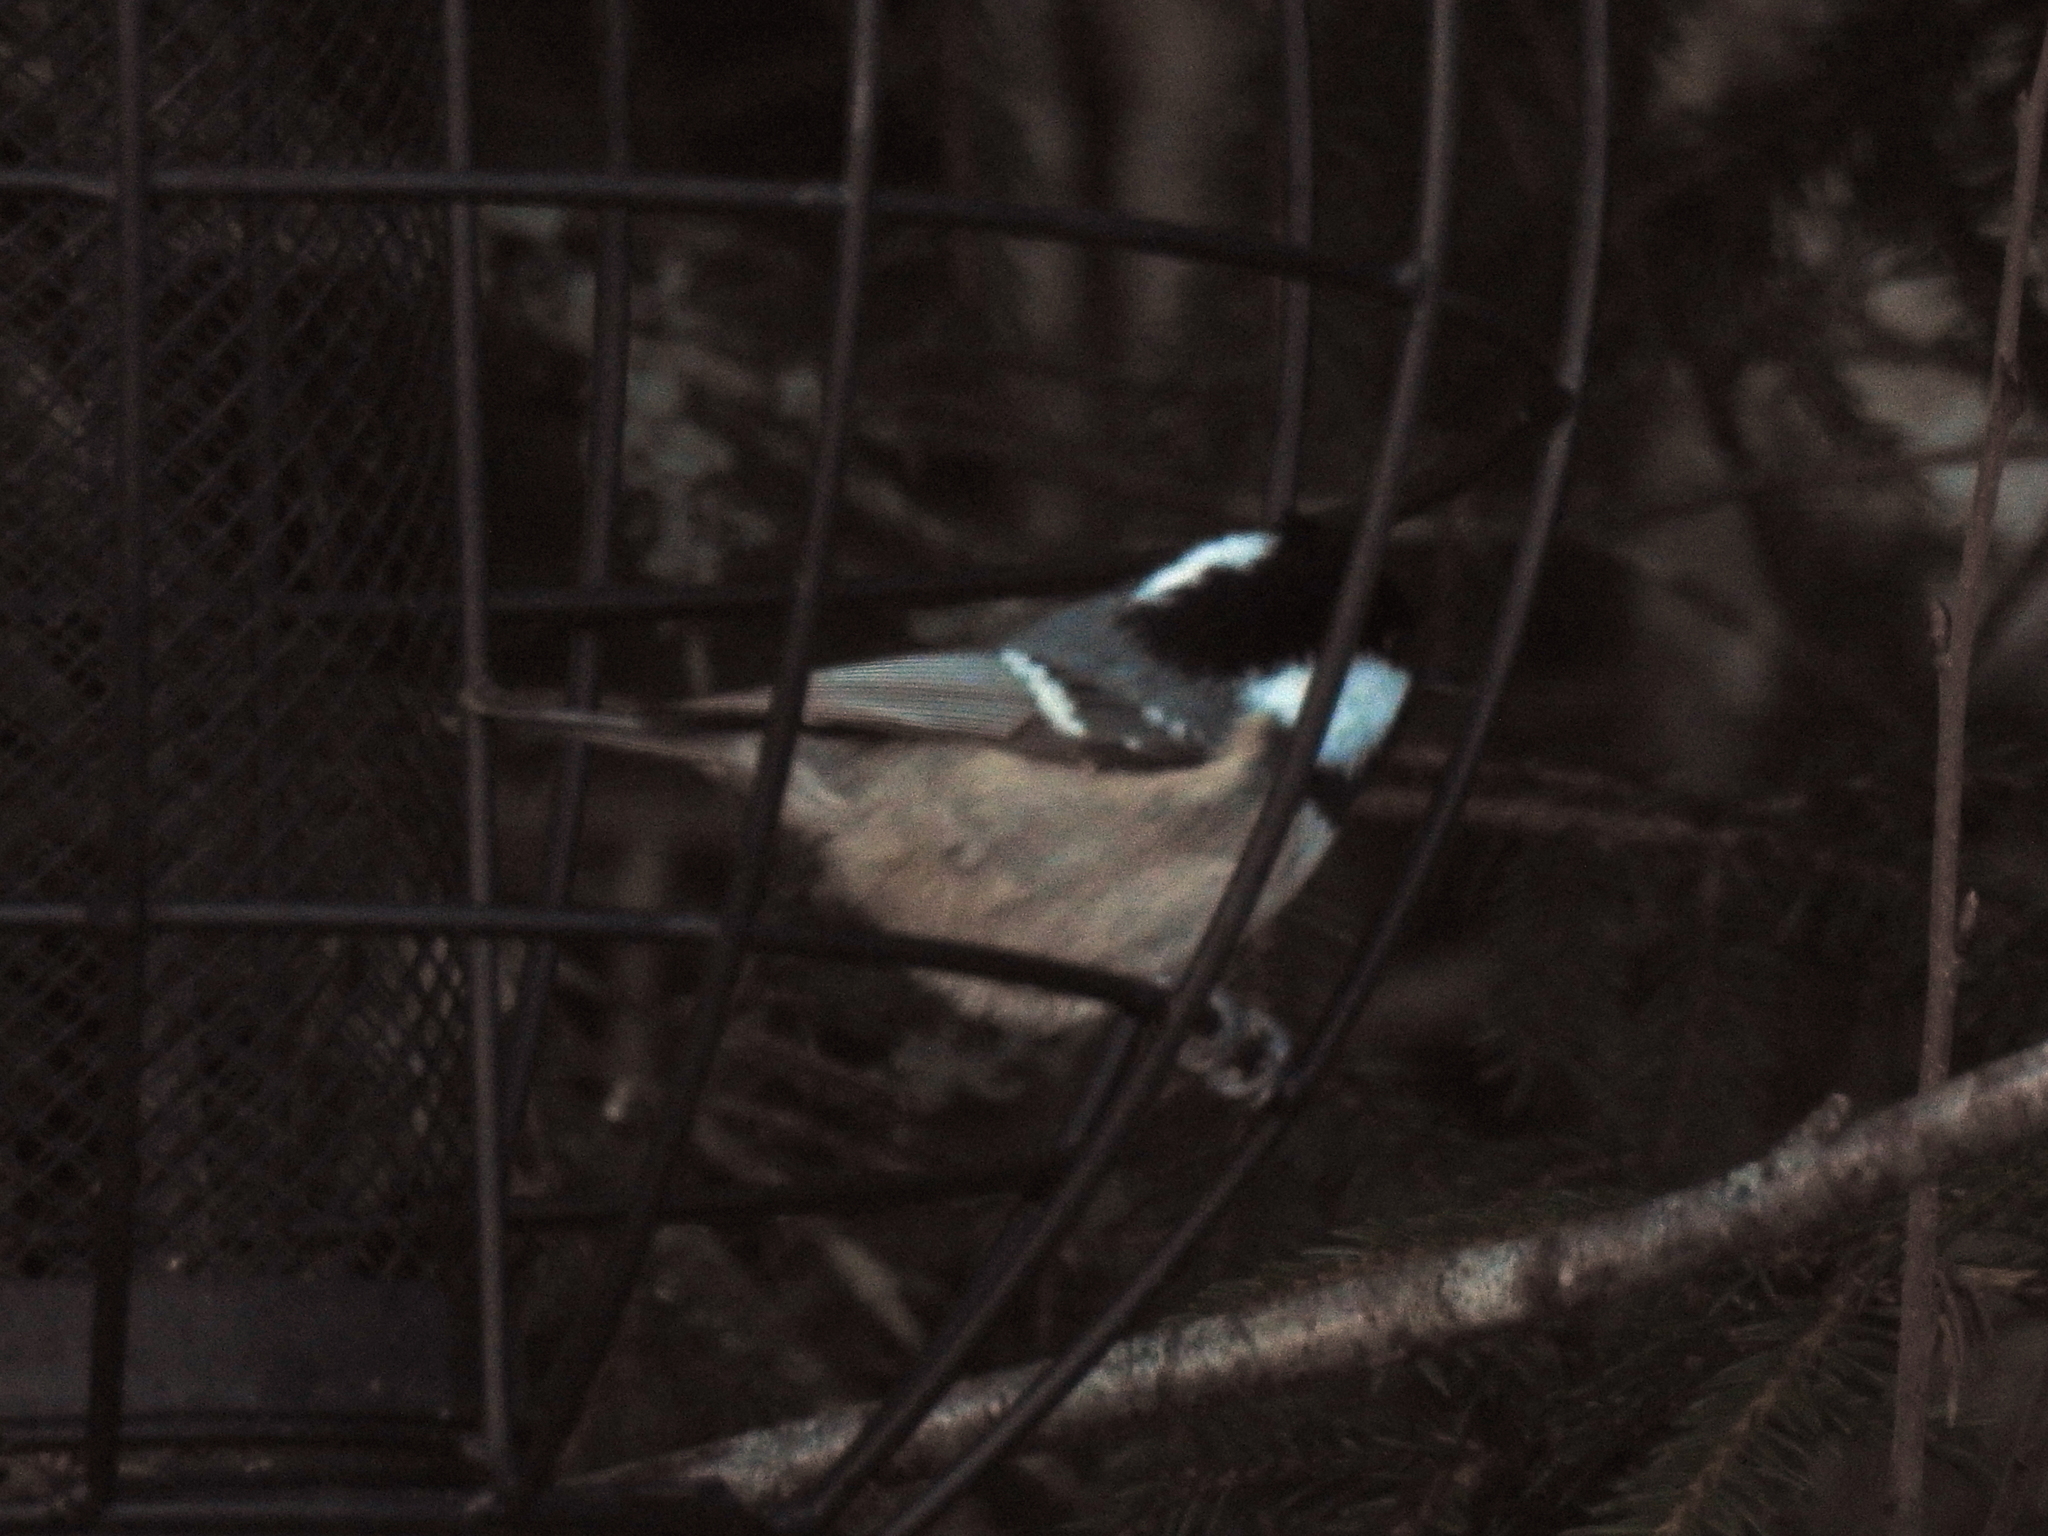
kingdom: Animalia
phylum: Chordata
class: Aves
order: Passeriformes
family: Paridae
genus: Periparus
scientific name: Periparus ater
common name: Coal tit
